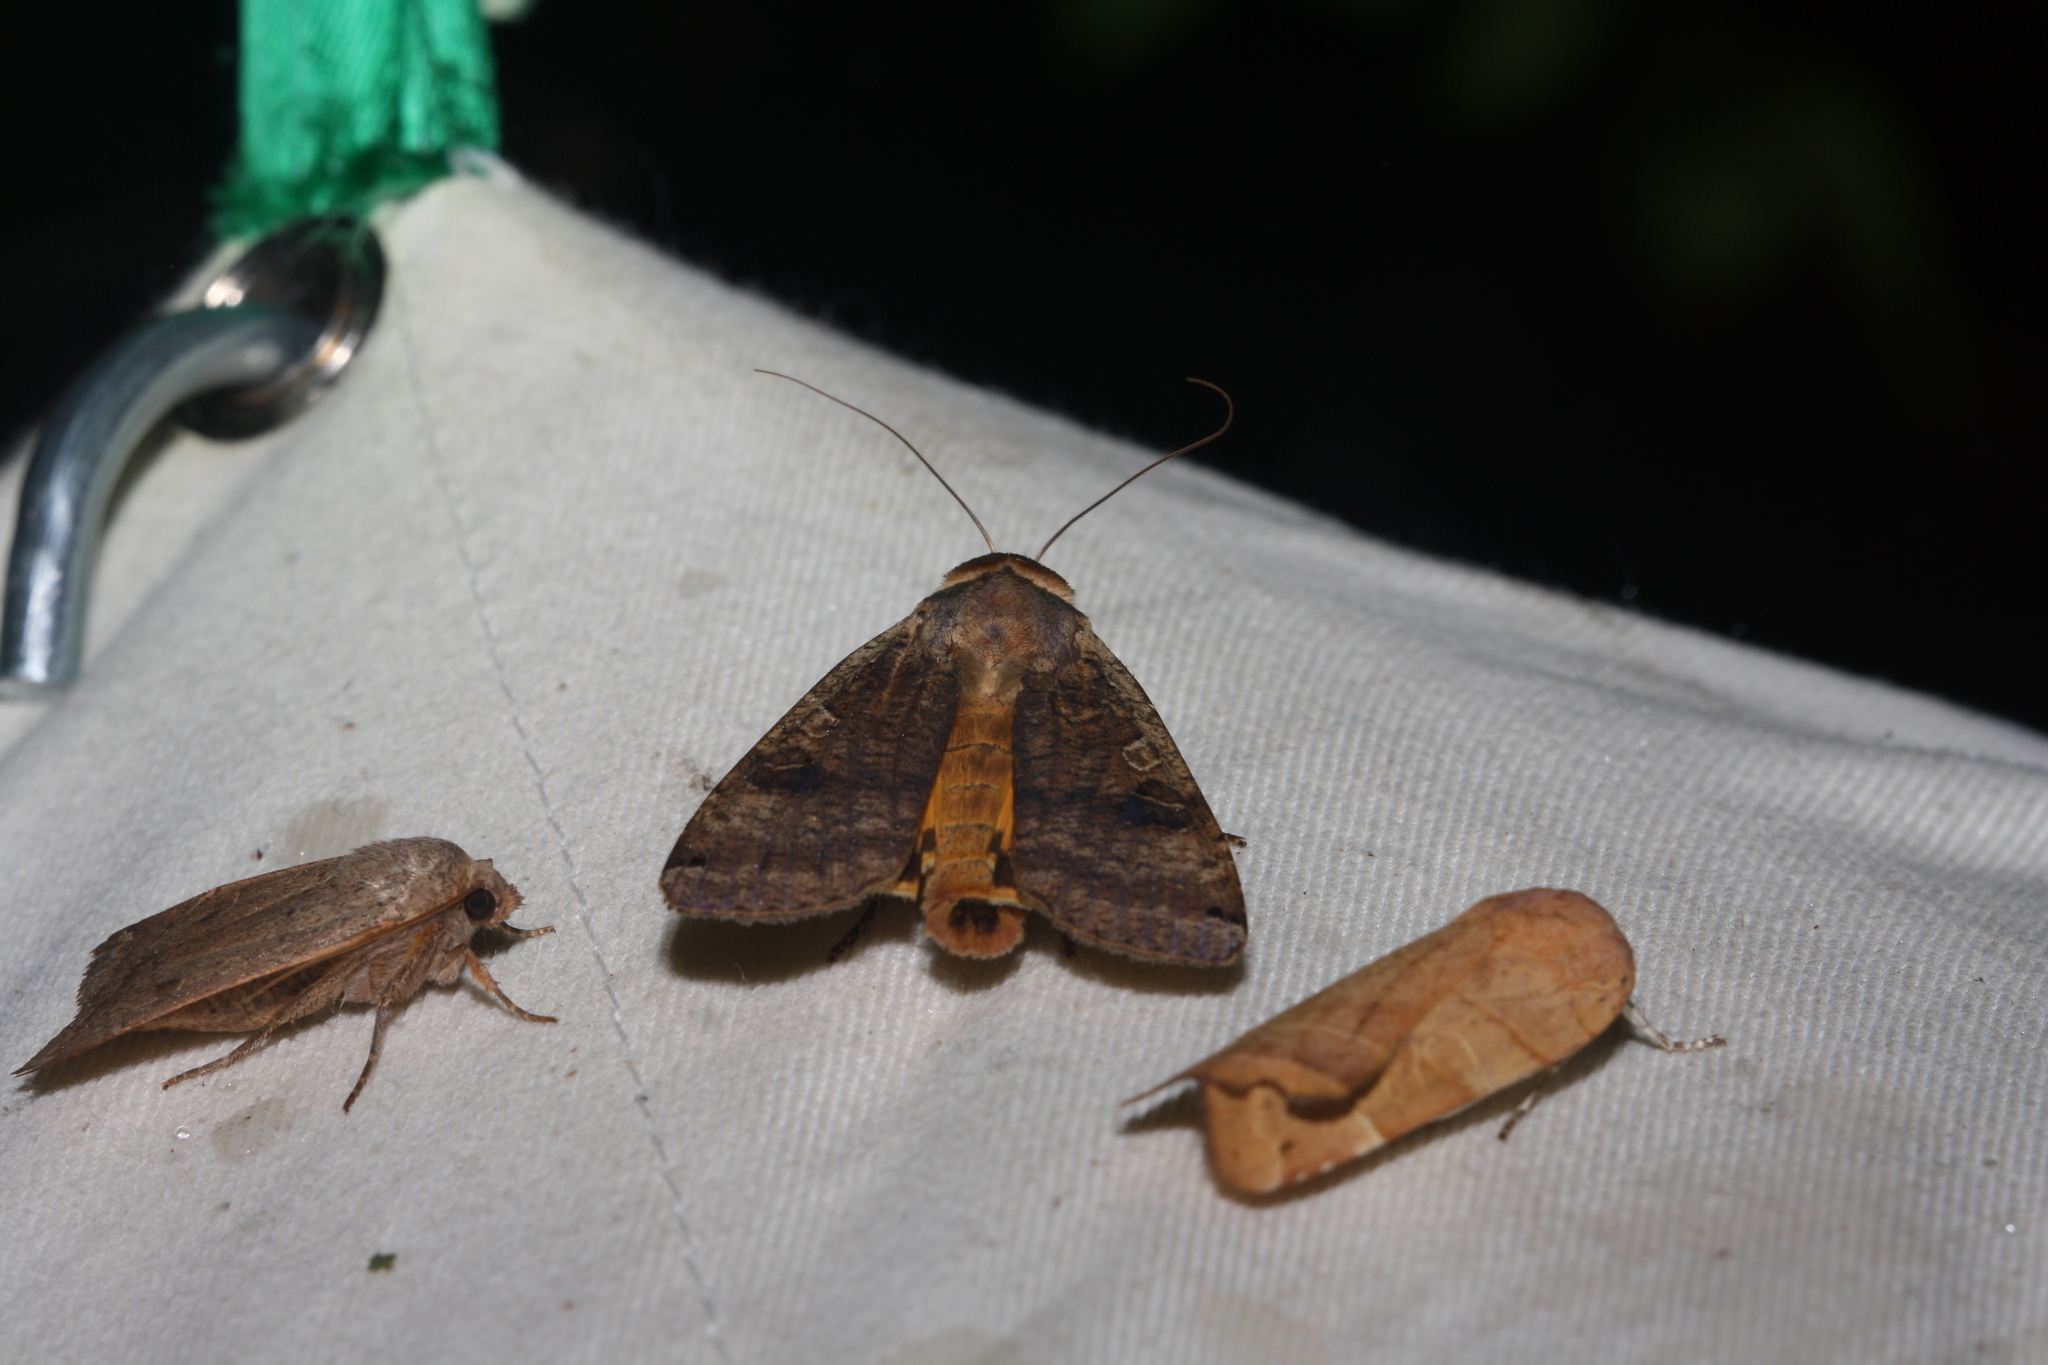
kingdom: Animalia
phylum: Arthropoda
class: Insecta
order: Lepidoptera
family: Noctuidae
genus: Noctua
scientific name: Noctua pronuba
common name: Large yellow underwing
